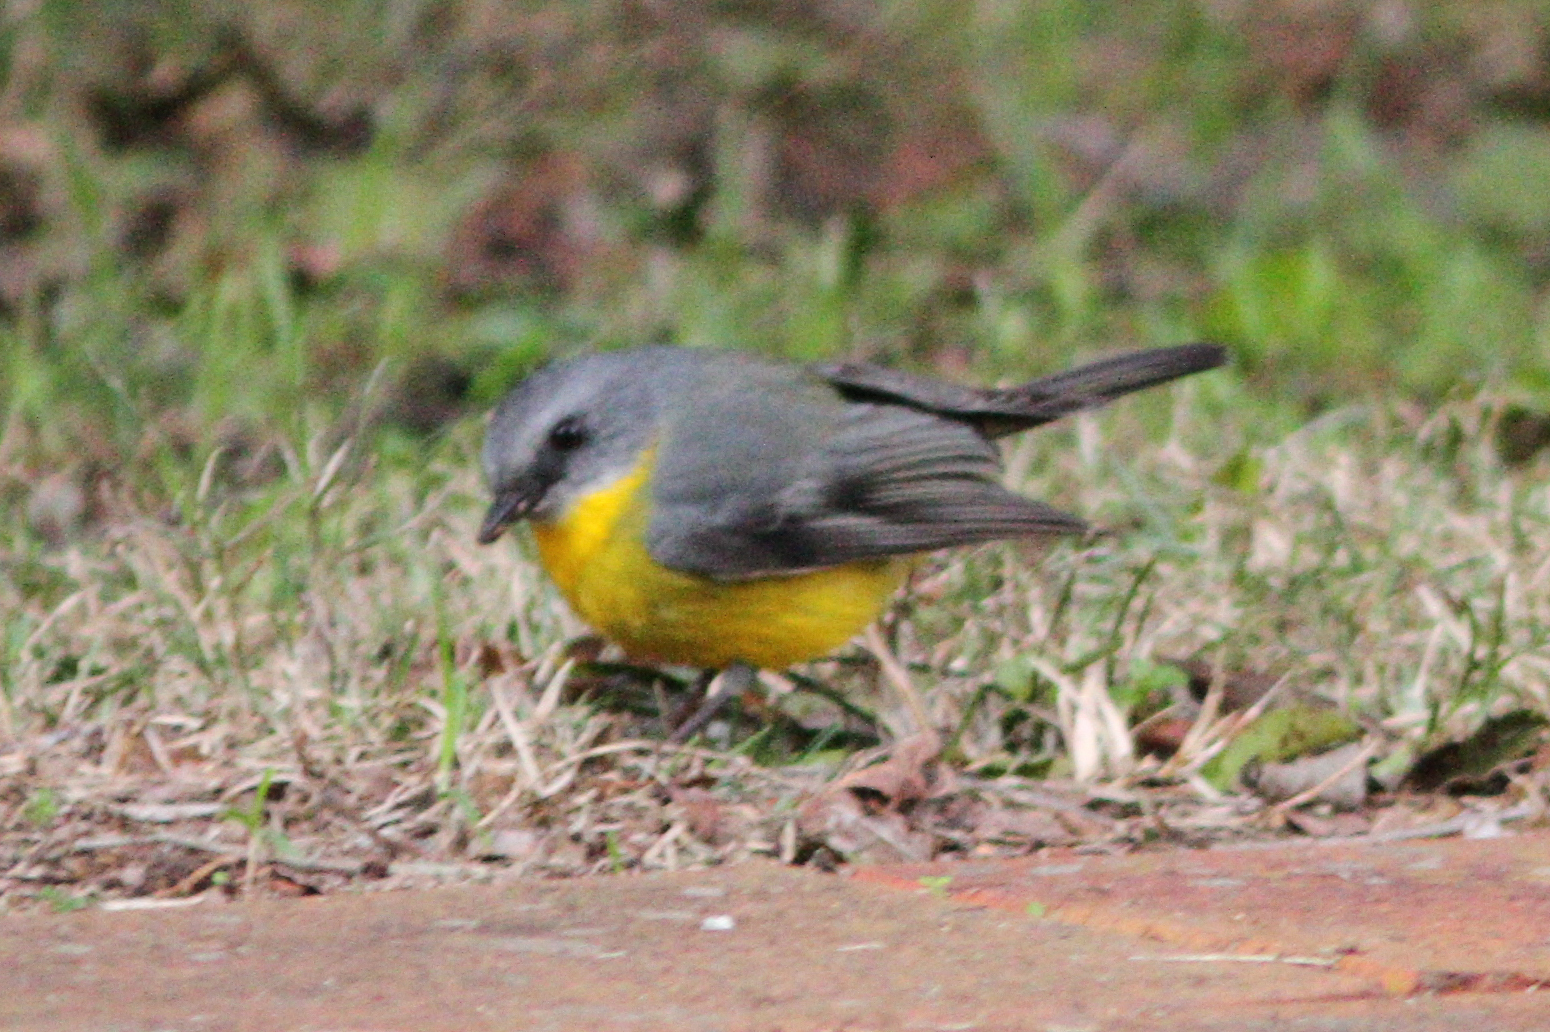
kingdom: Animalia
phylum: Chordata
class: Aves
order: Passeriformes
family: Petroicidae
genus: Eopsaltria
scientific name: Eopsaltria australis
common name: Eastern yellow robin
